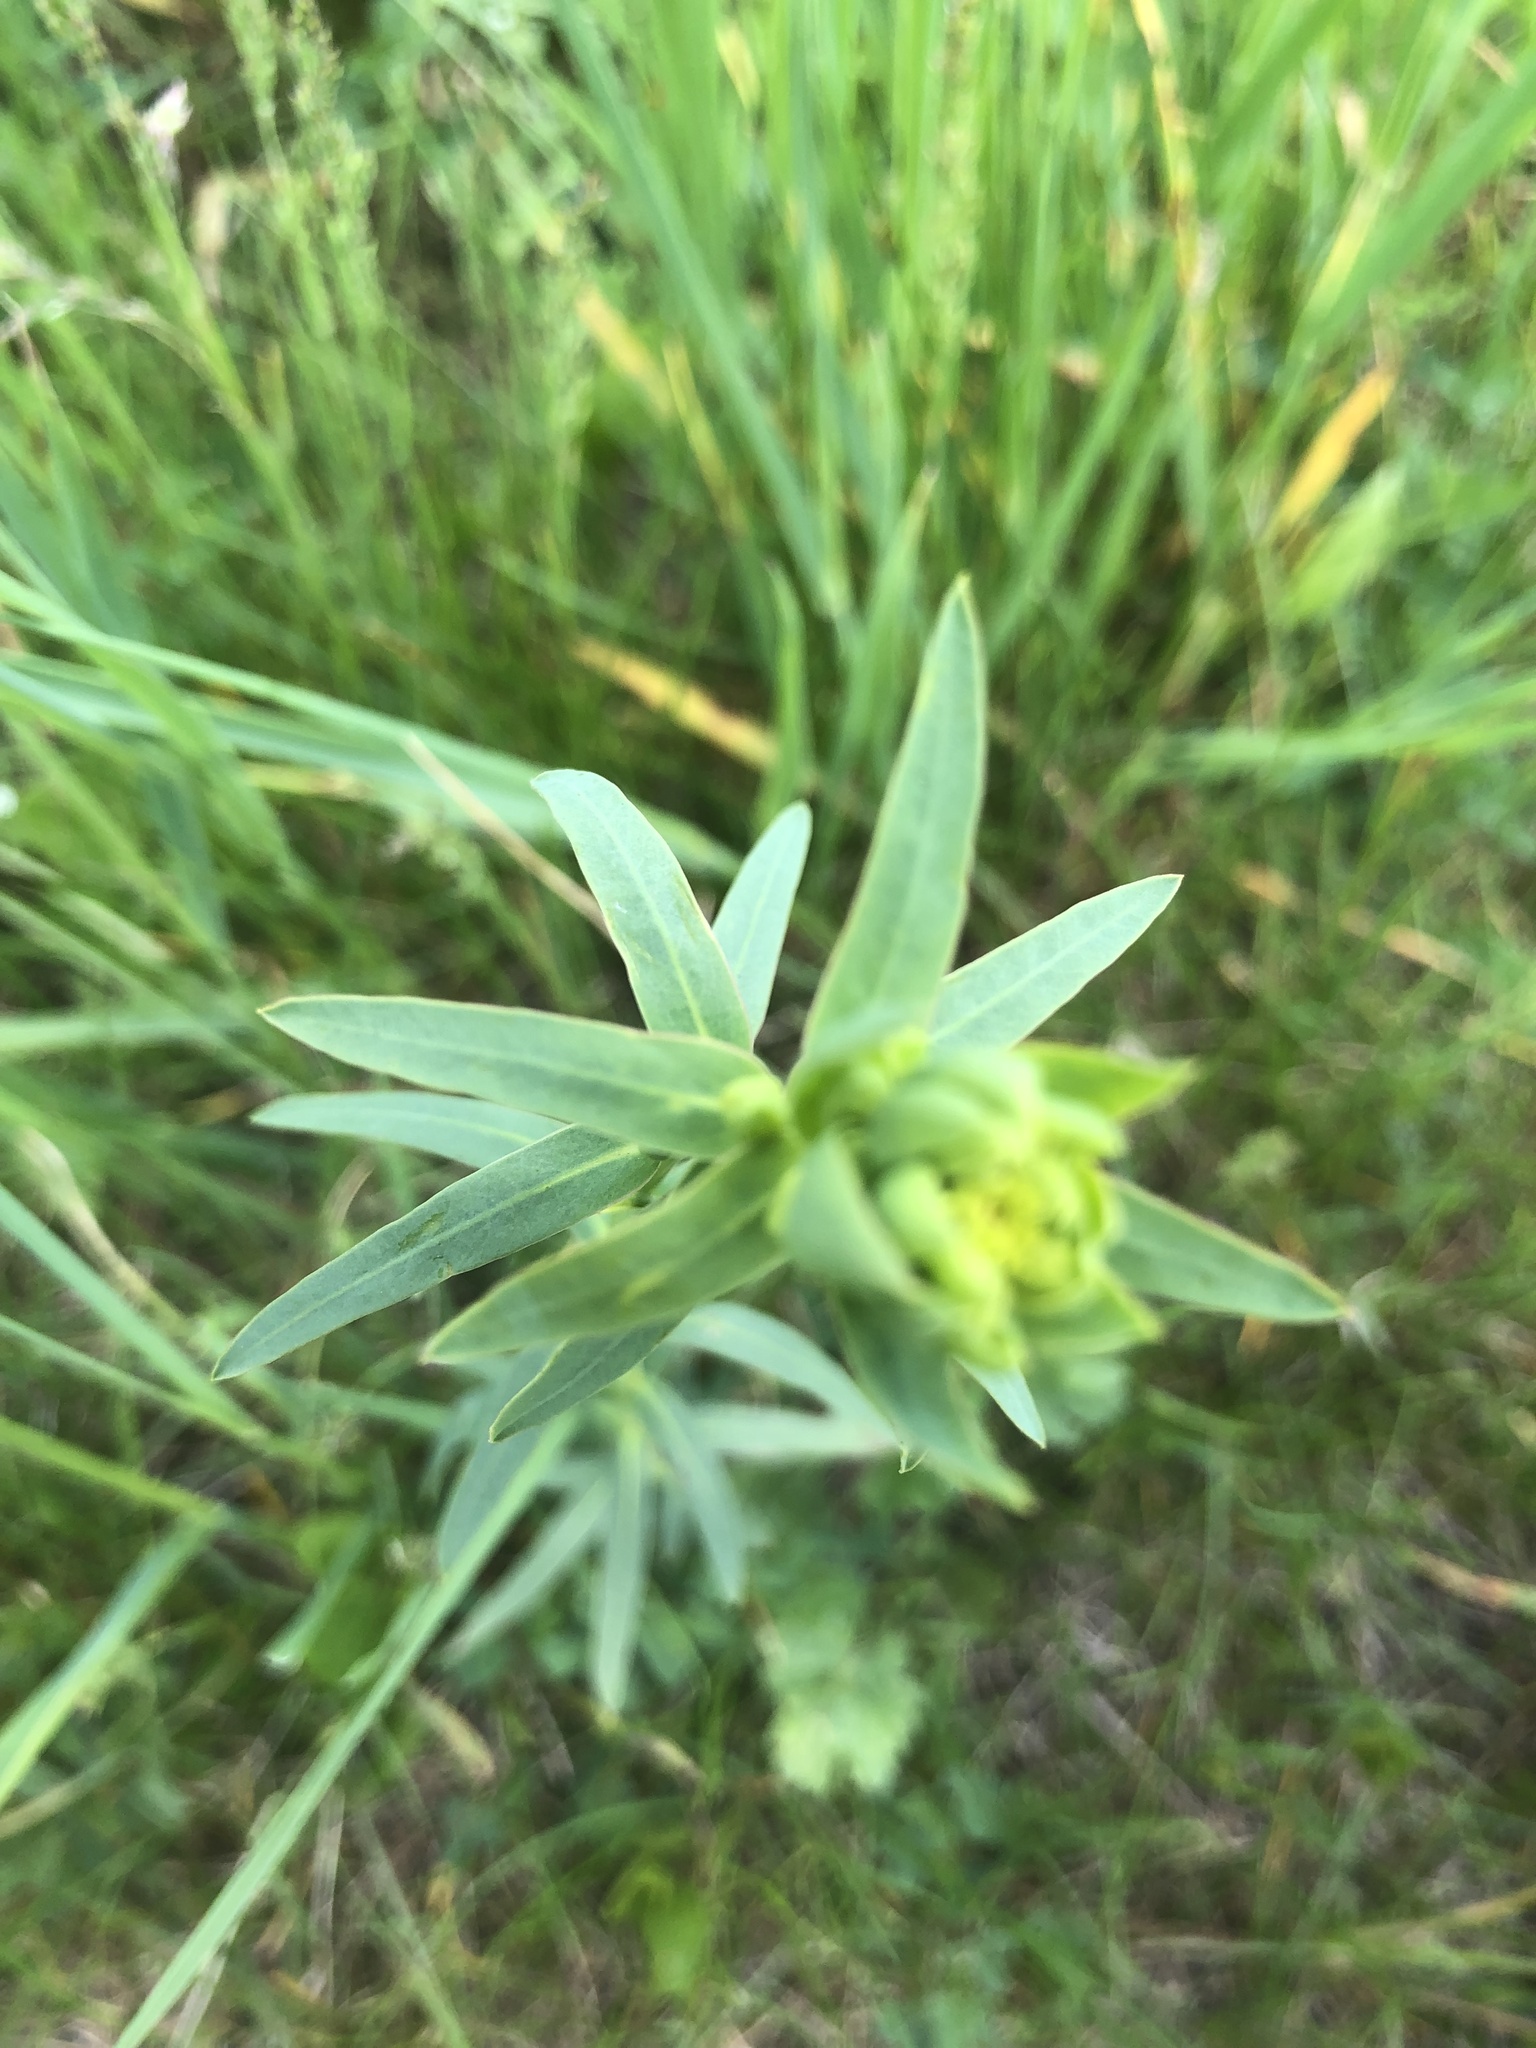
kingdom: Plantae
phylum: Tracheophyta
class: Magnoliopsida
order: Malpighiales
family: Euphorbiaceae
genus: Euphorbia
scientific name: Euphorbia virgata
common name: Leafy spurge
